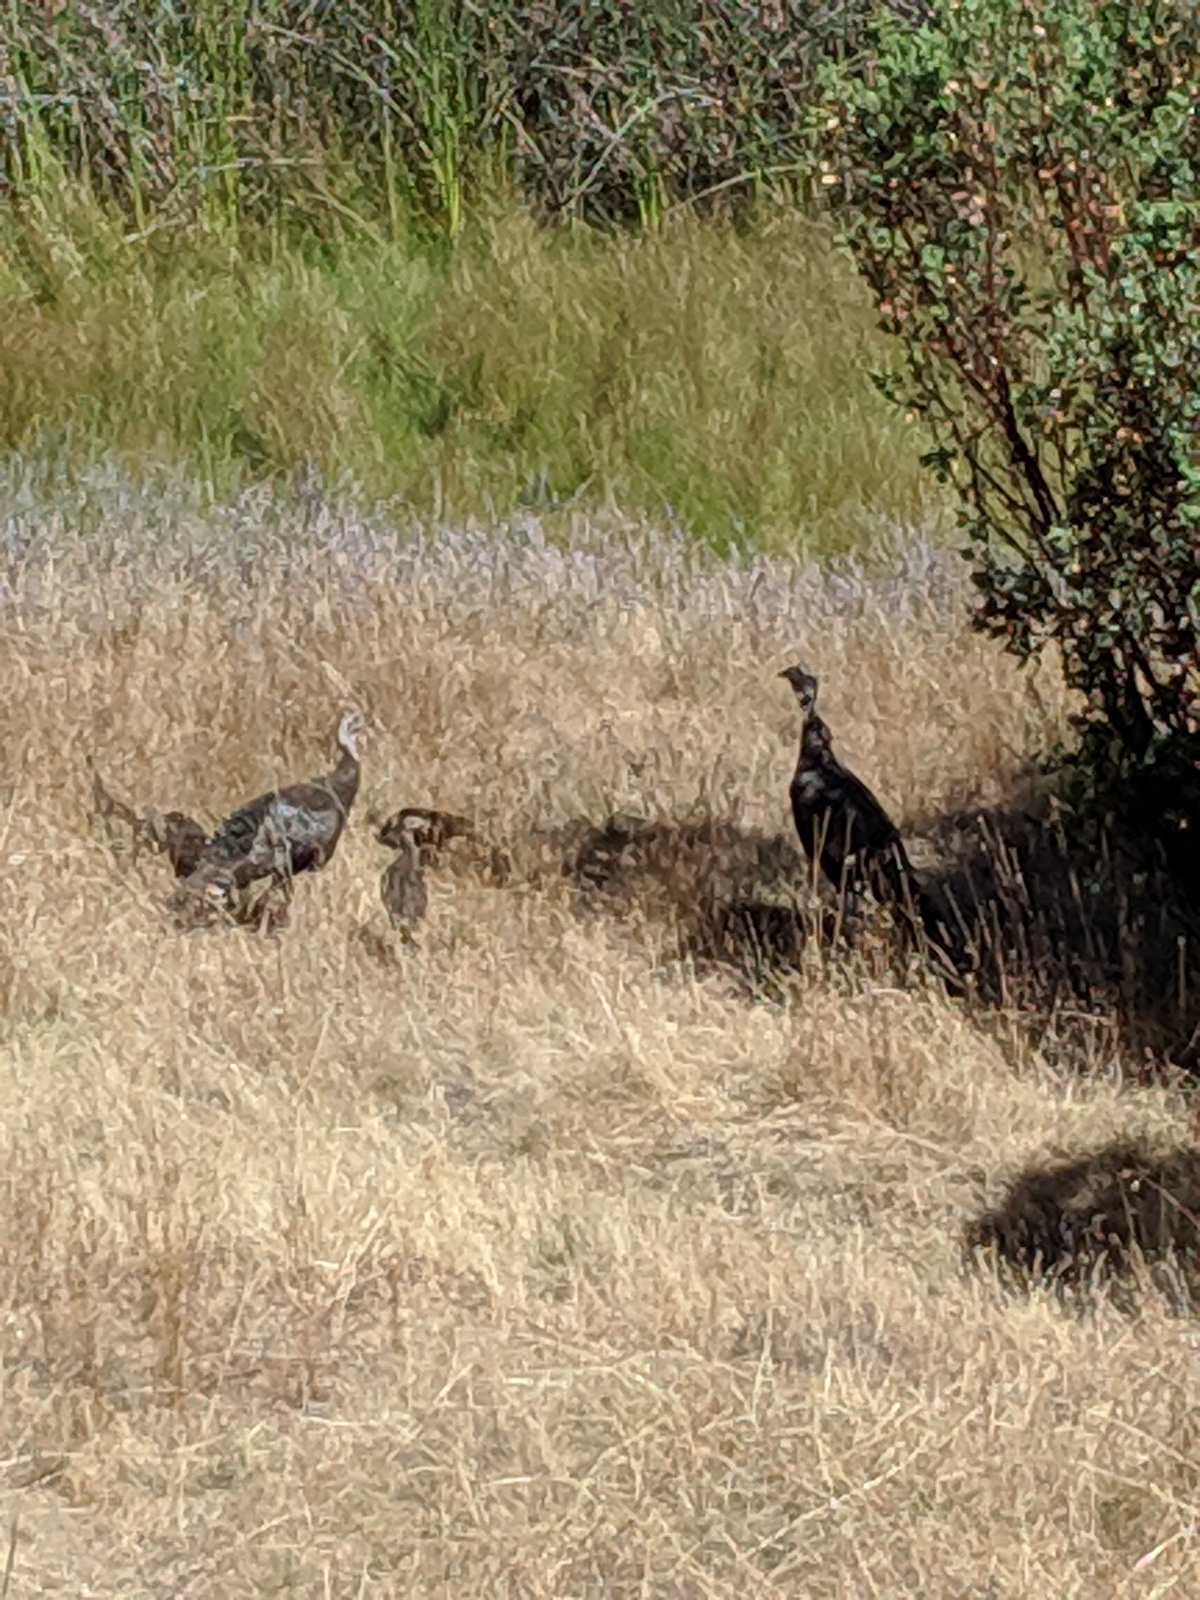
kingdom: Animalia
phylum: Chordata
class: Aves
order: Galliformes
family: Phasianidae
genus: Meleagris
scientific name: Meleagris gallopavo
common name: Wild turkey
